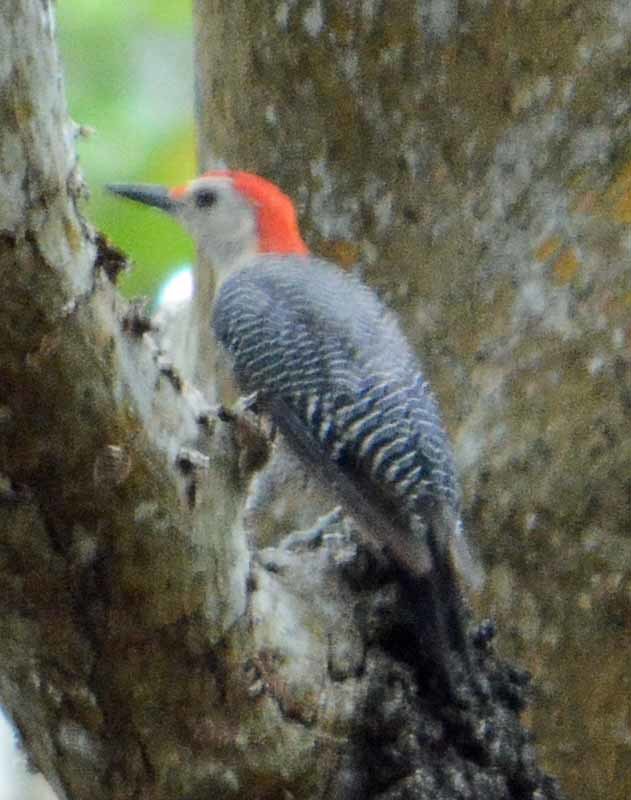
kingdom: Animalia
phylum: Chordata
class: Aves
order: Piciformes
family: Picidae
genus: Melanerpes
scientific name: Melanerpes aurifrons
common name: Golden-fronted woodpecker
